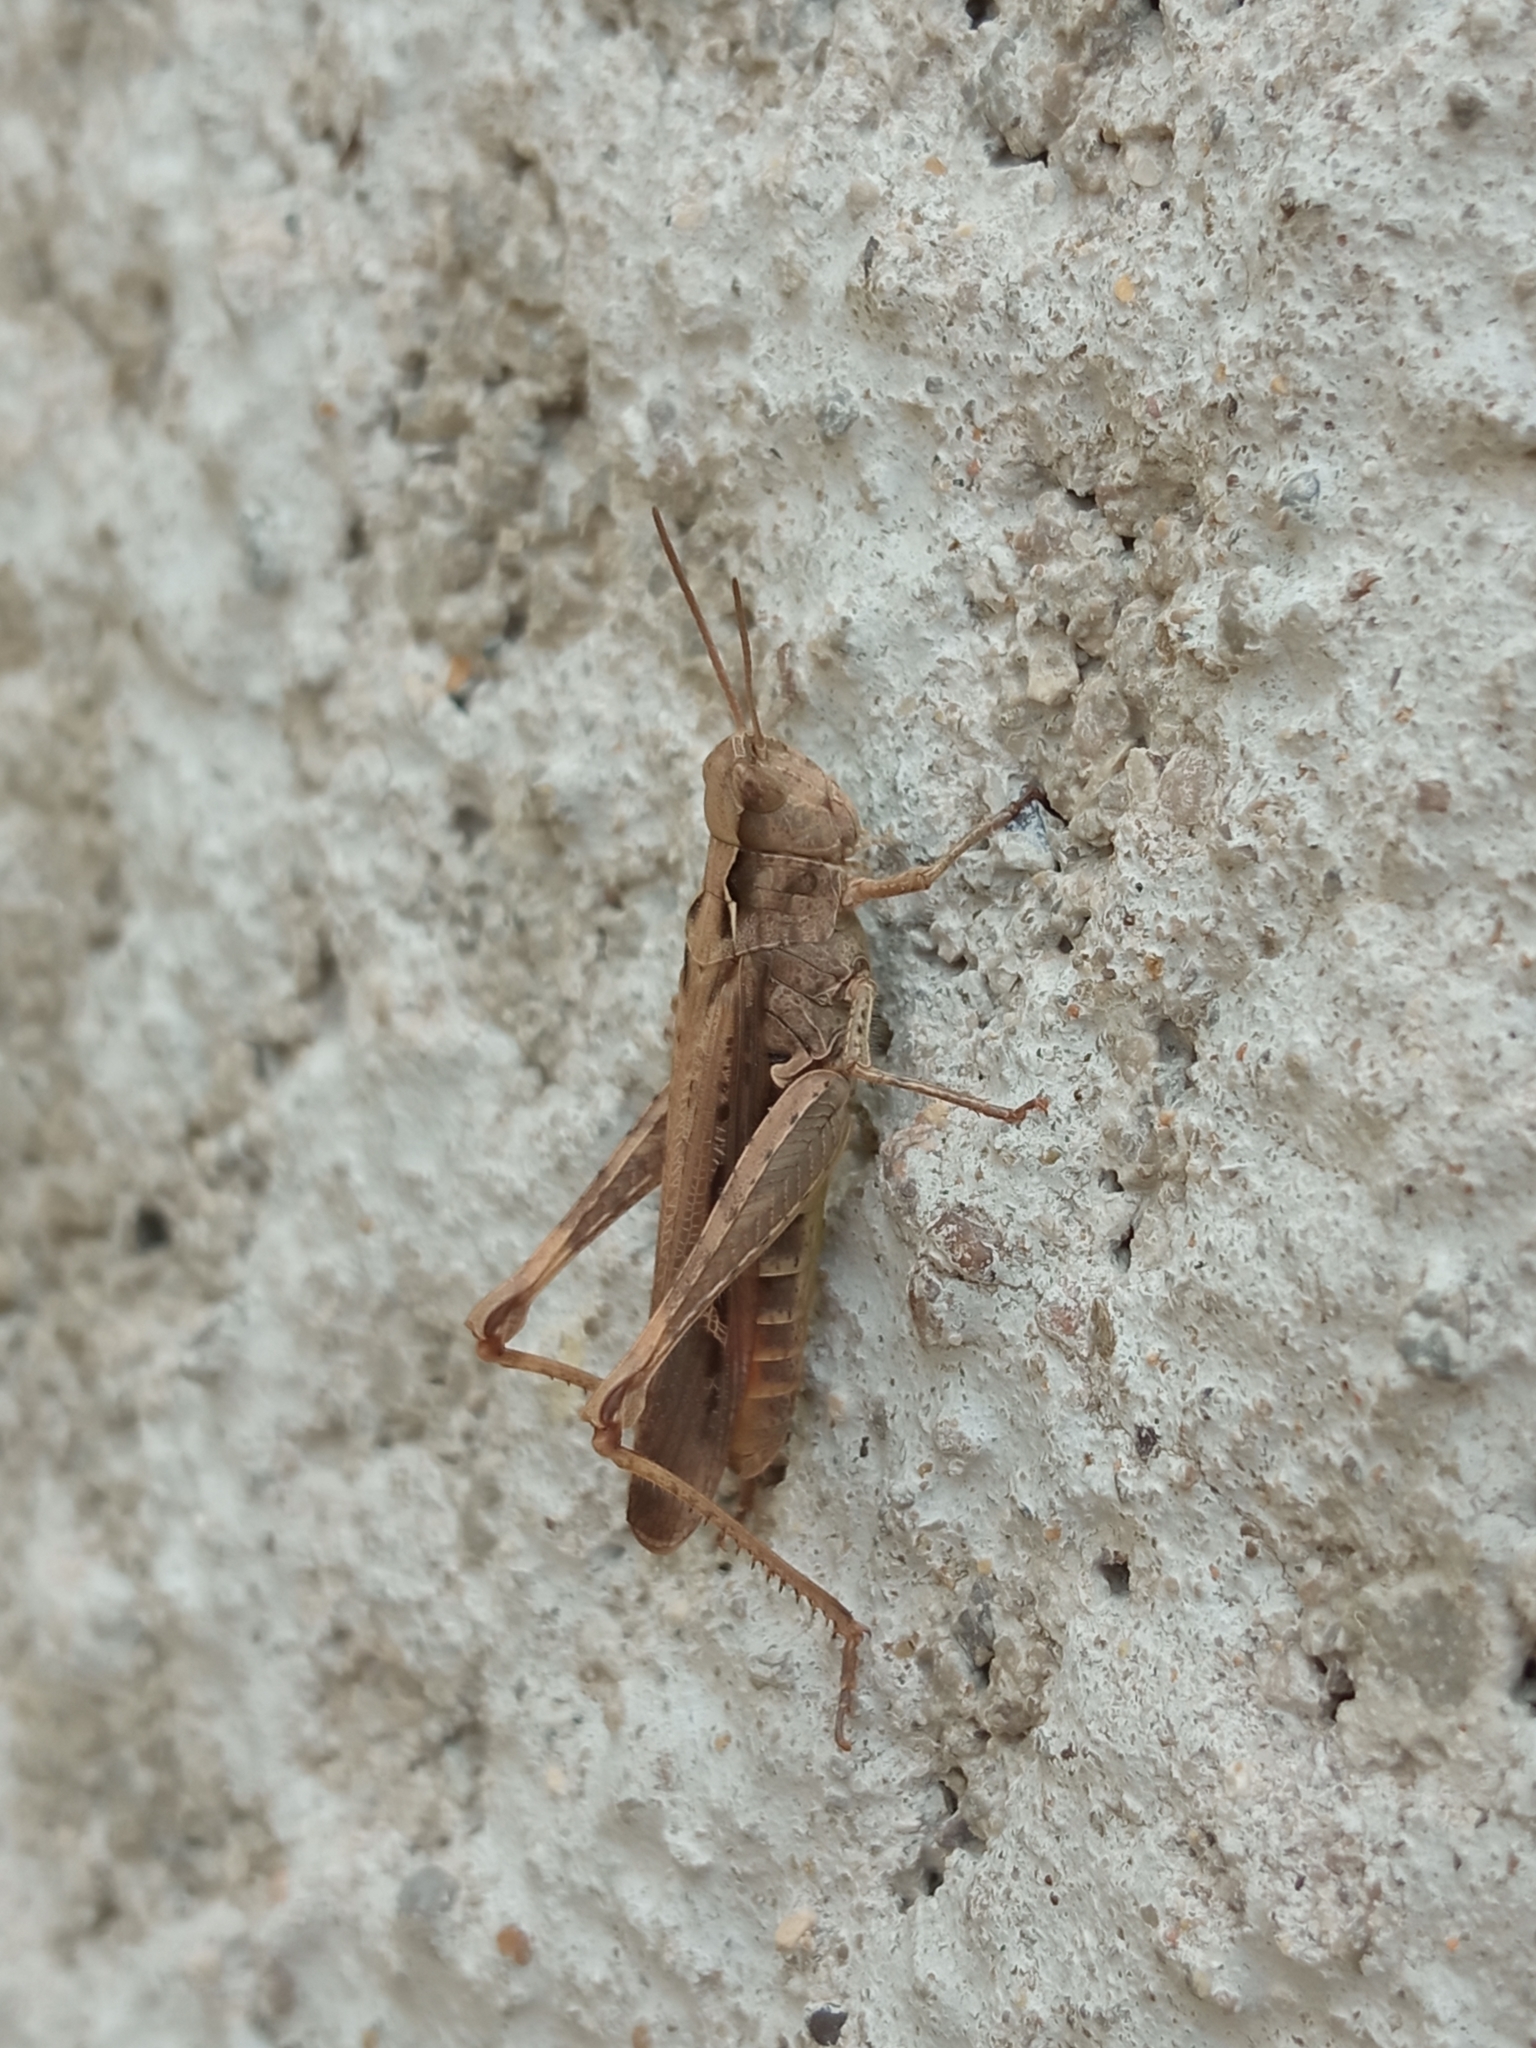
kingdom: Animalia
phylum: Arthropoda
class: Insecta
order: Orthoptera
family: Acrididae
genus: Chorthippus
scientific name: Chorthippus brunneus
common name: Field grasshopper
